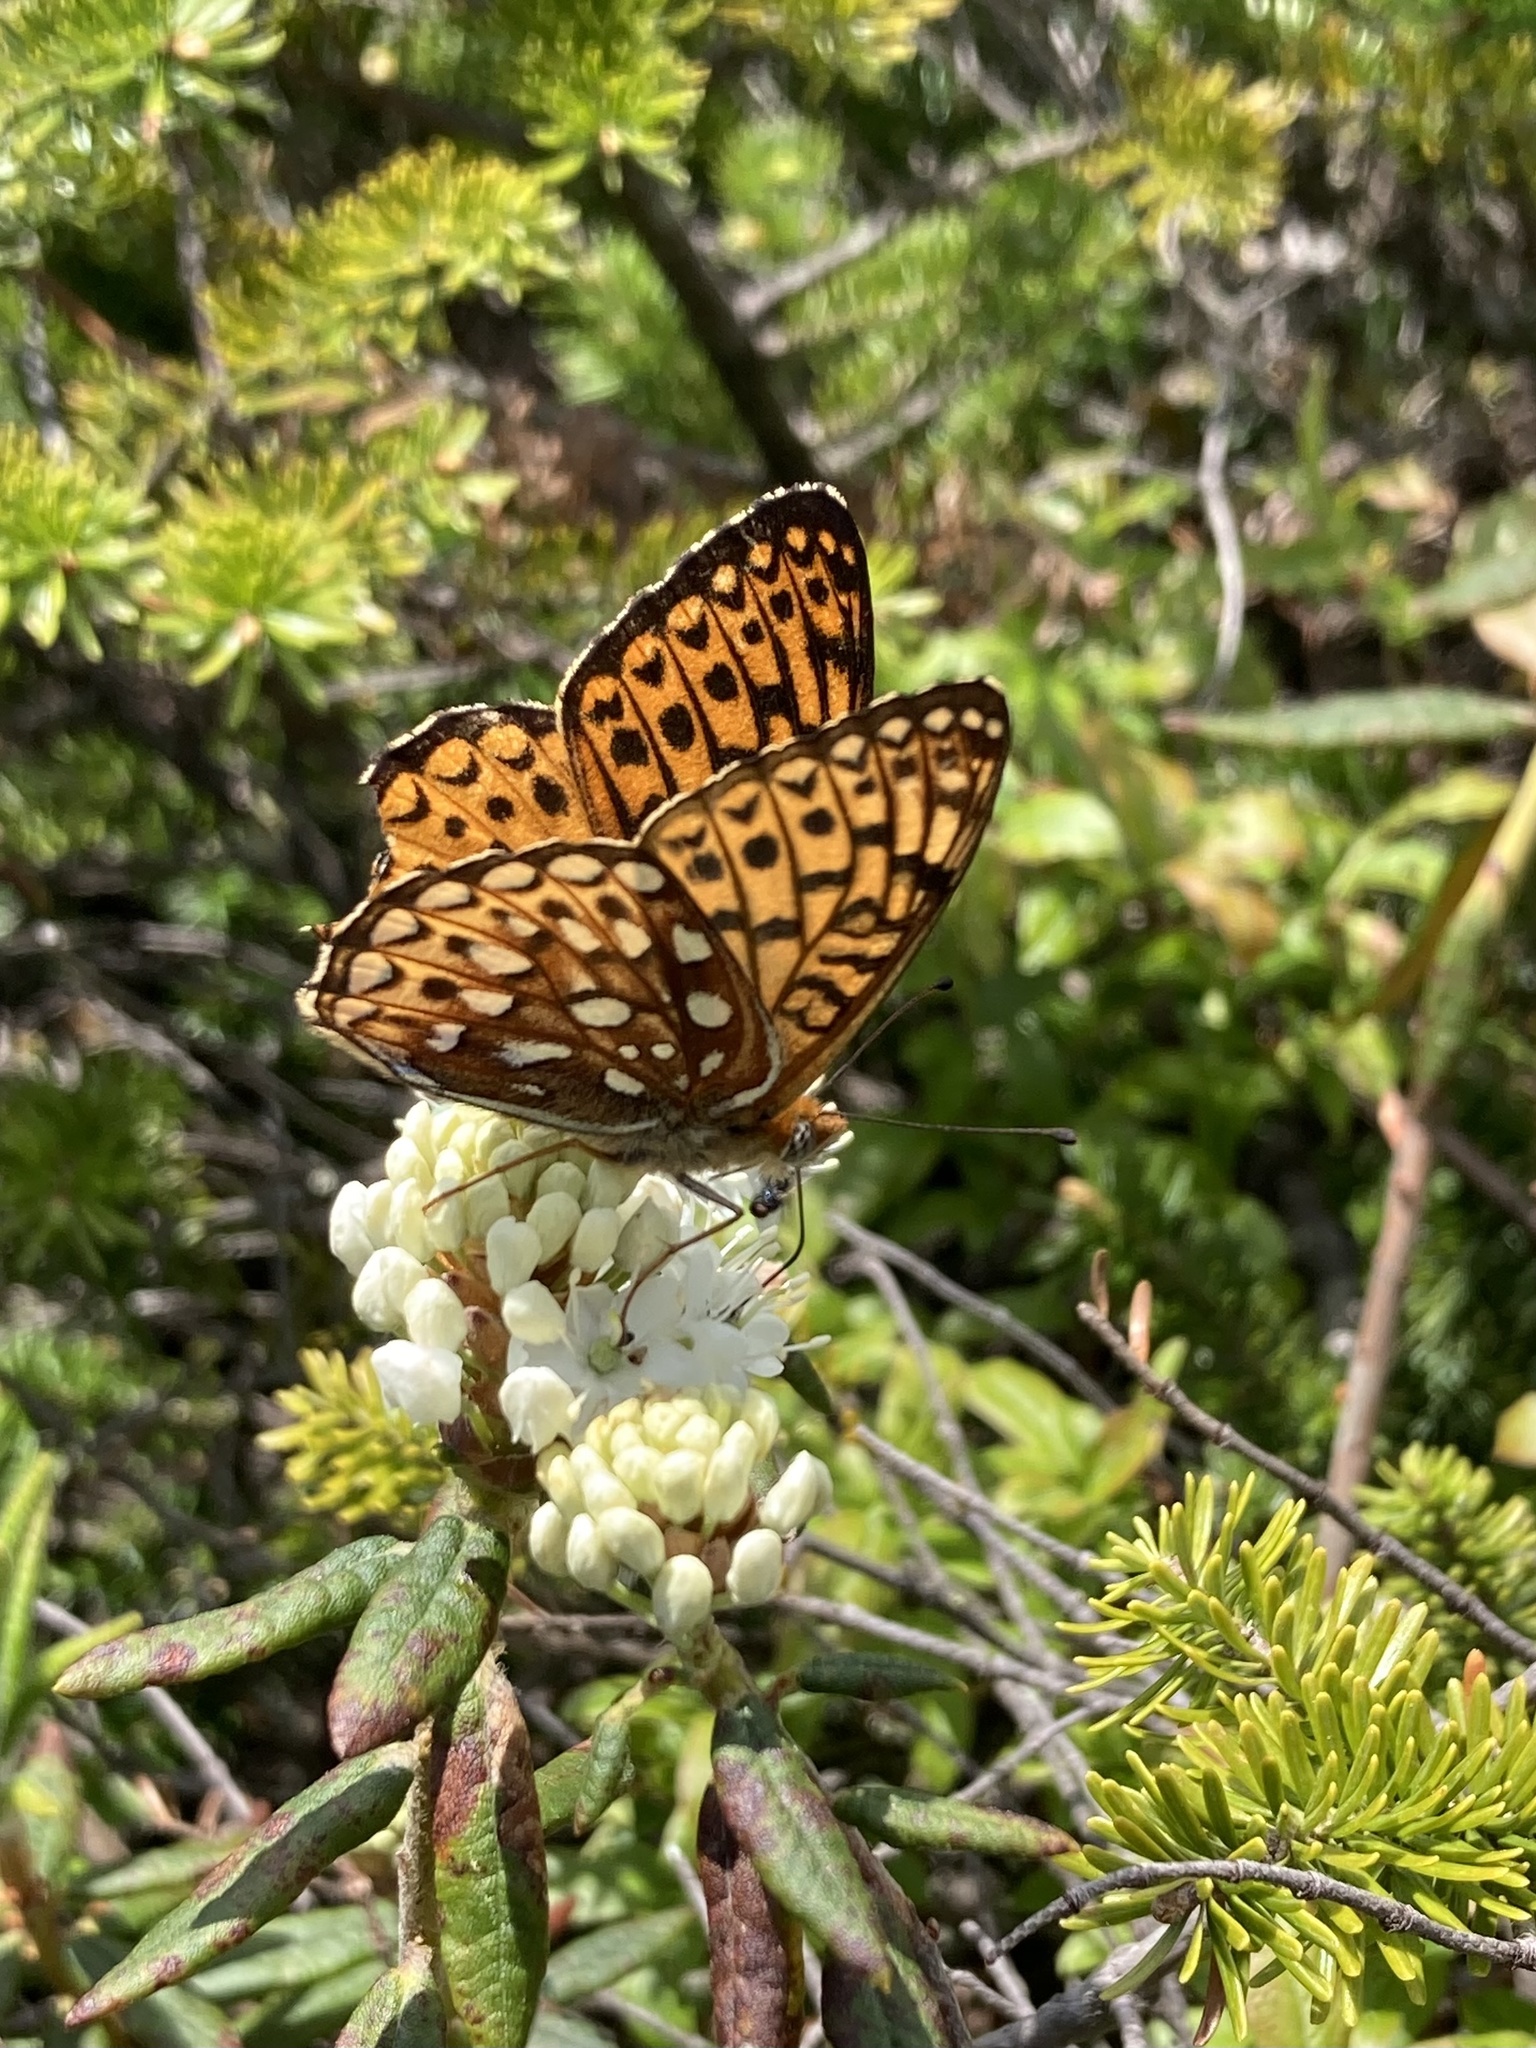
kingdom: Animalia
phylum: Arthropoda
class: Insecta
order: Lepidoptera
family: Nymphalidae
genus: Speyeria
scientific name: Speyeria atlantis
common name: Atlantis fritillary
